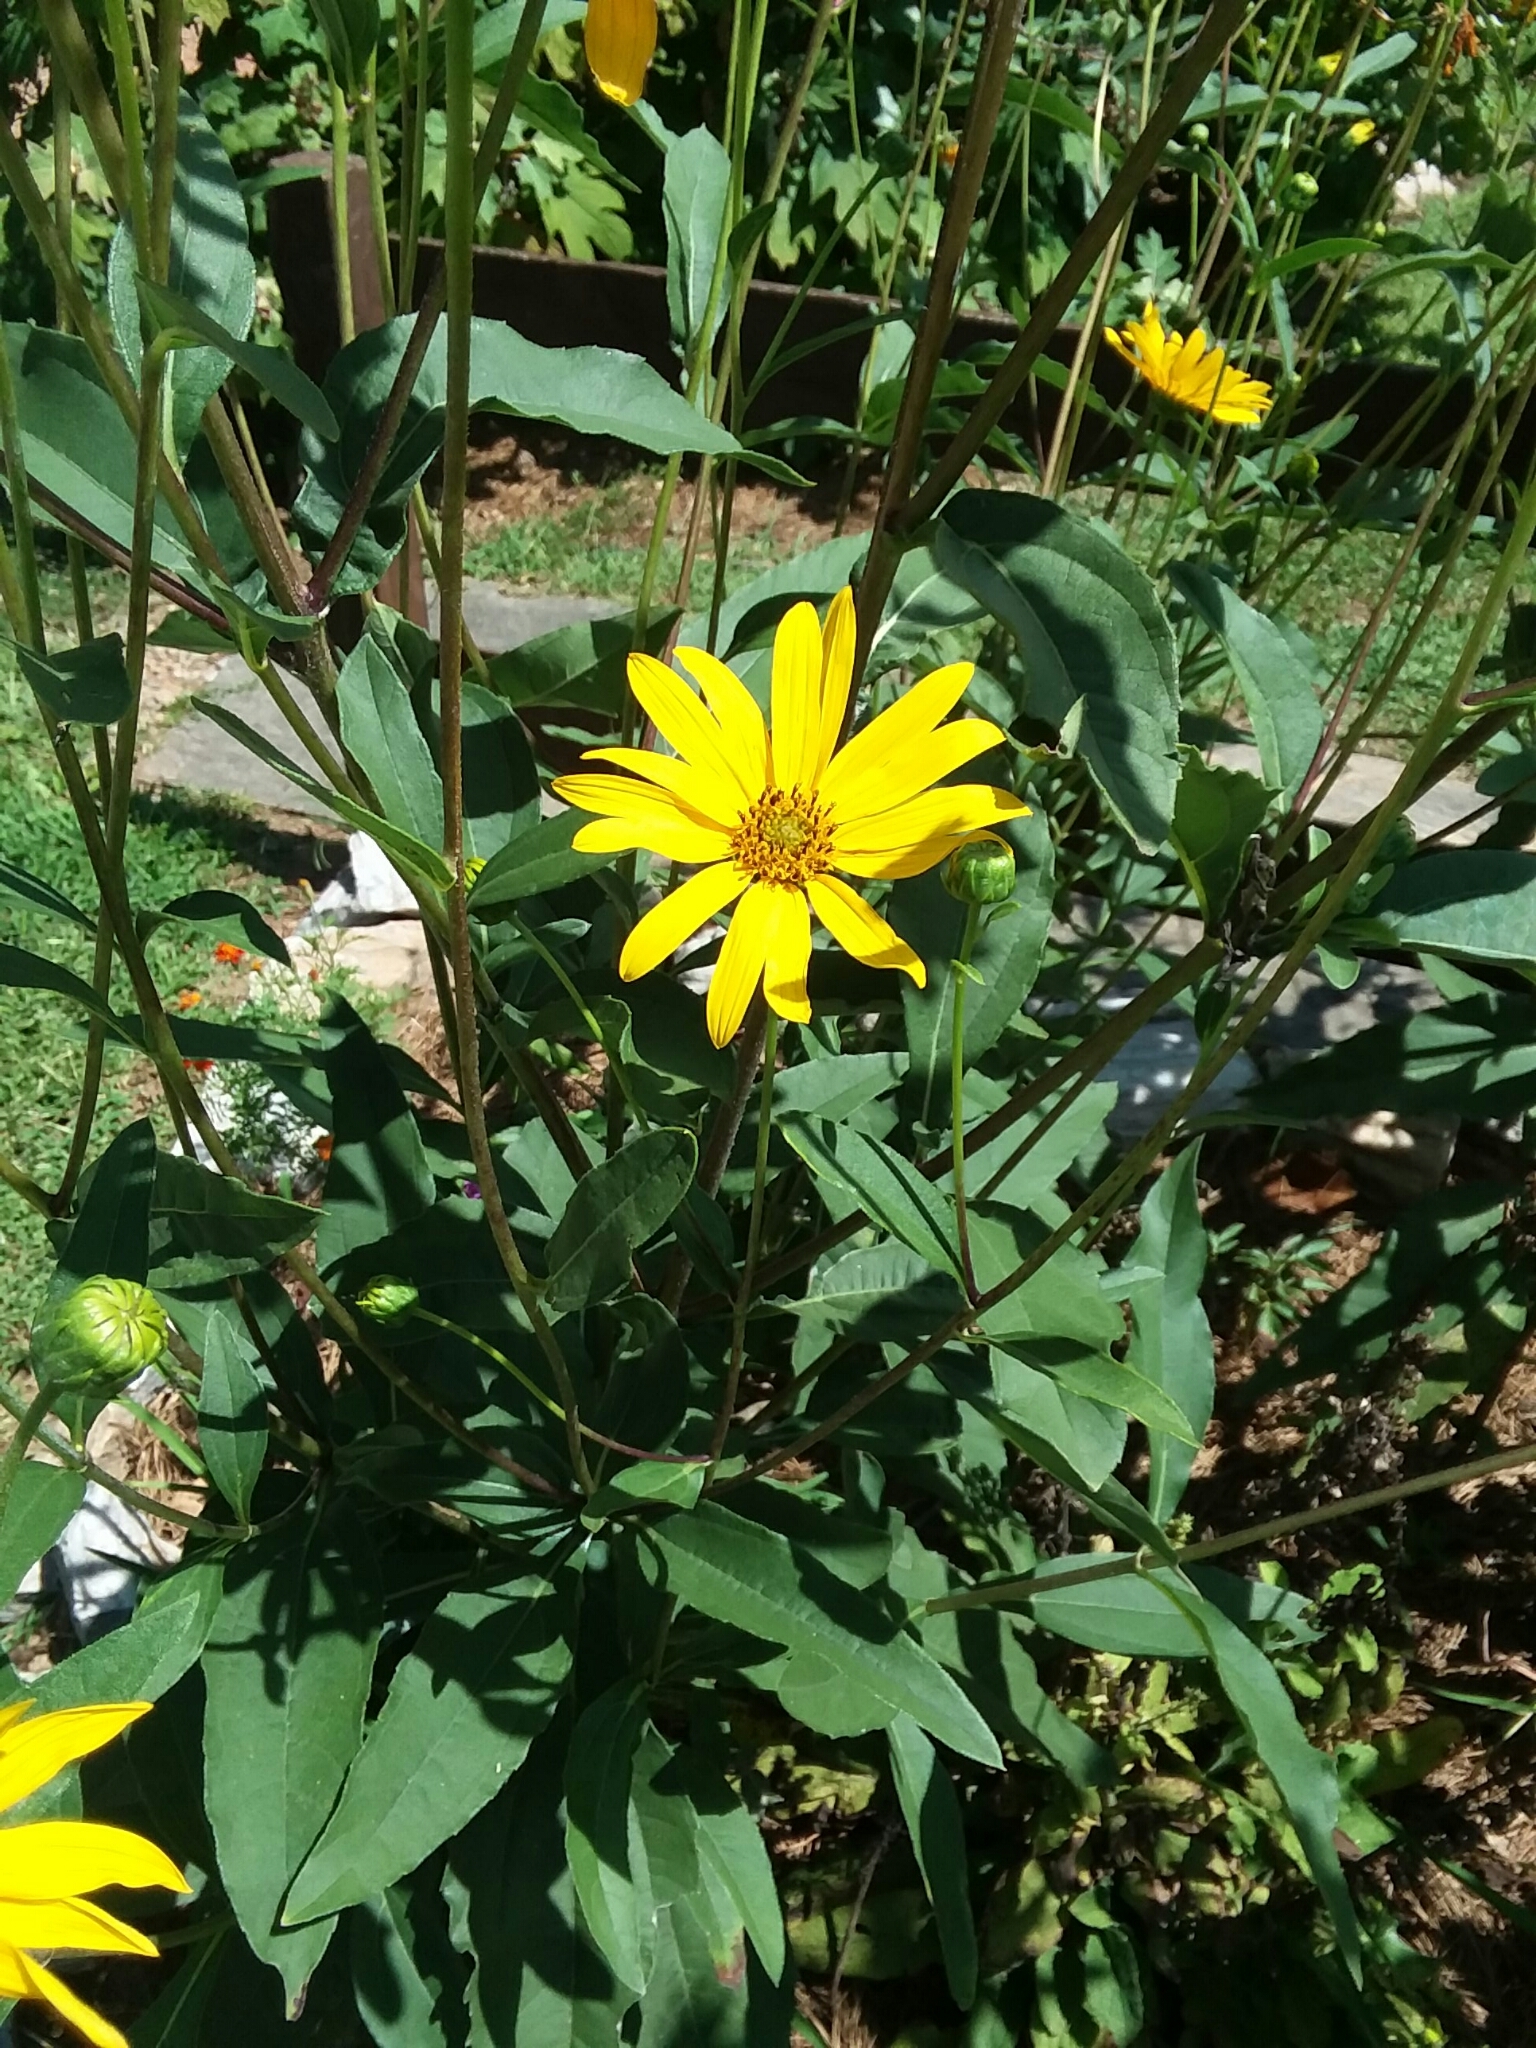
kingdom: Plantae
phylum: Tracheophyta
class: Magnoliopsida
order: Asterales
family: Asteraceae
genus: Helianthus
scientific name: Helianthus tuberosus
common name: Jerusalem artichoke
